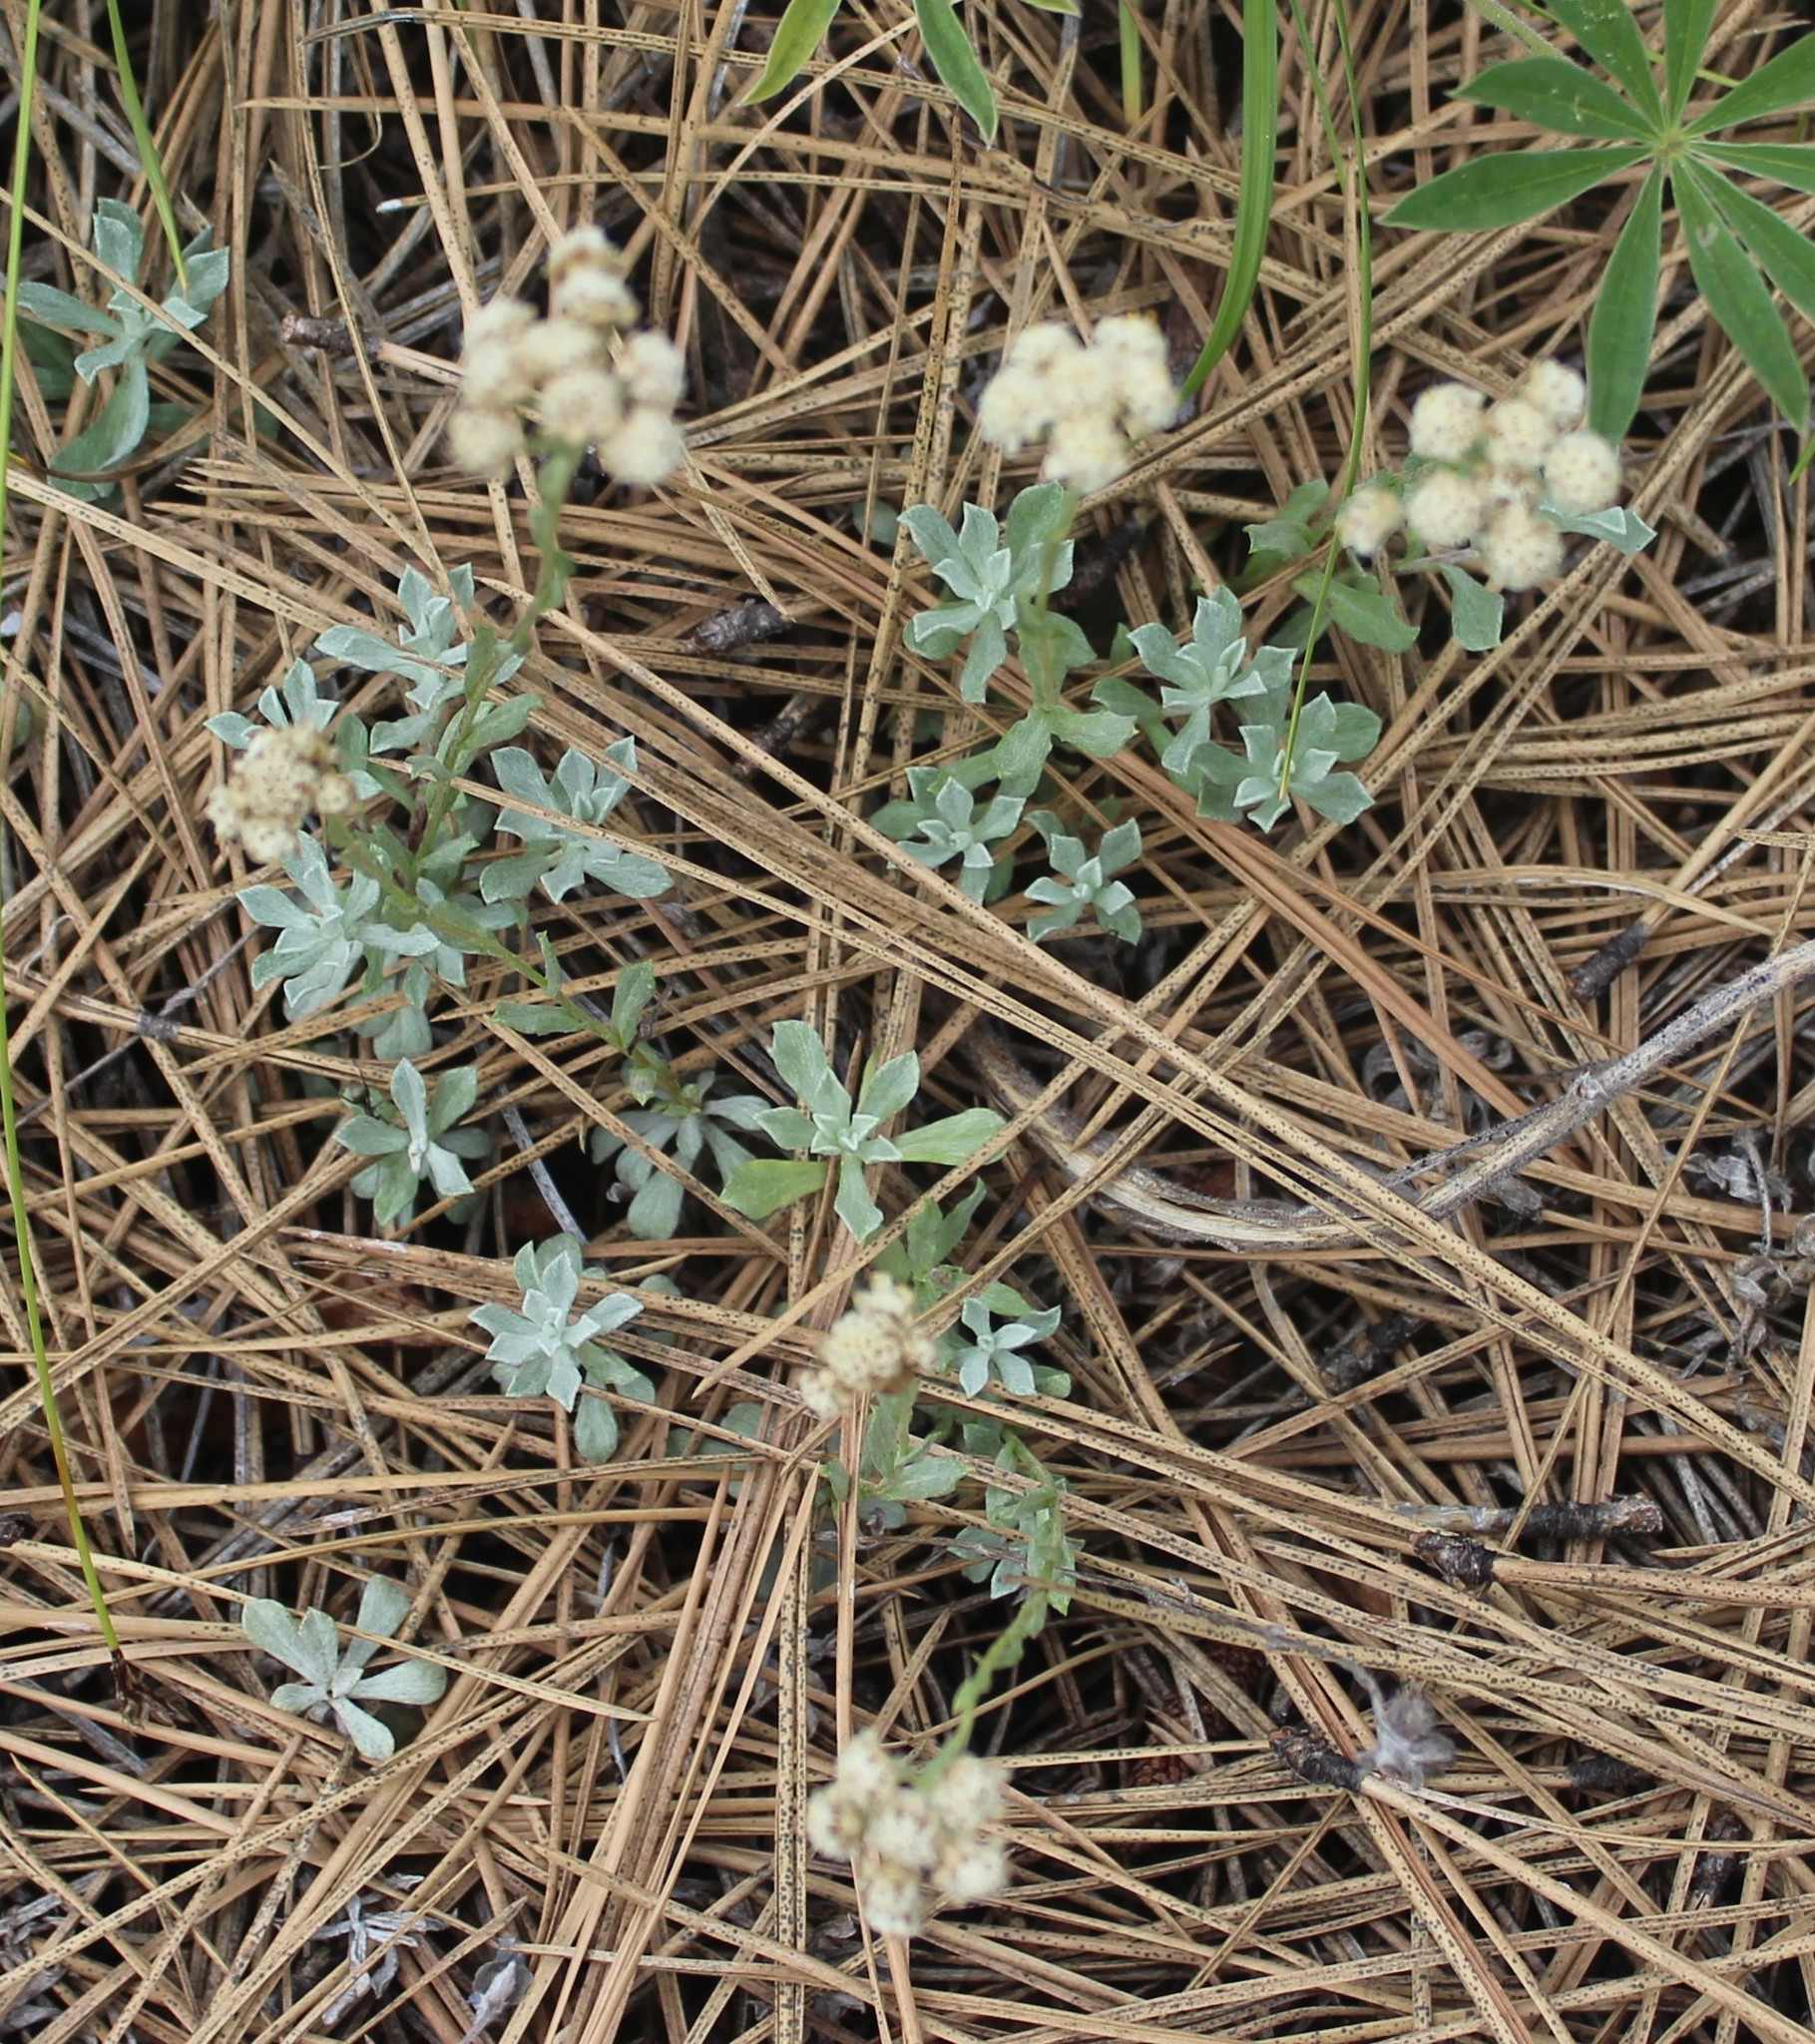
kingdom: Plantae
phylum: Tracheophyta
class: Magnoliopsida
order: Asterales
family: Asteraceae
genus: Antennaria
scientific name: Antennaria umbrinella
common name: Brown pussytoes
